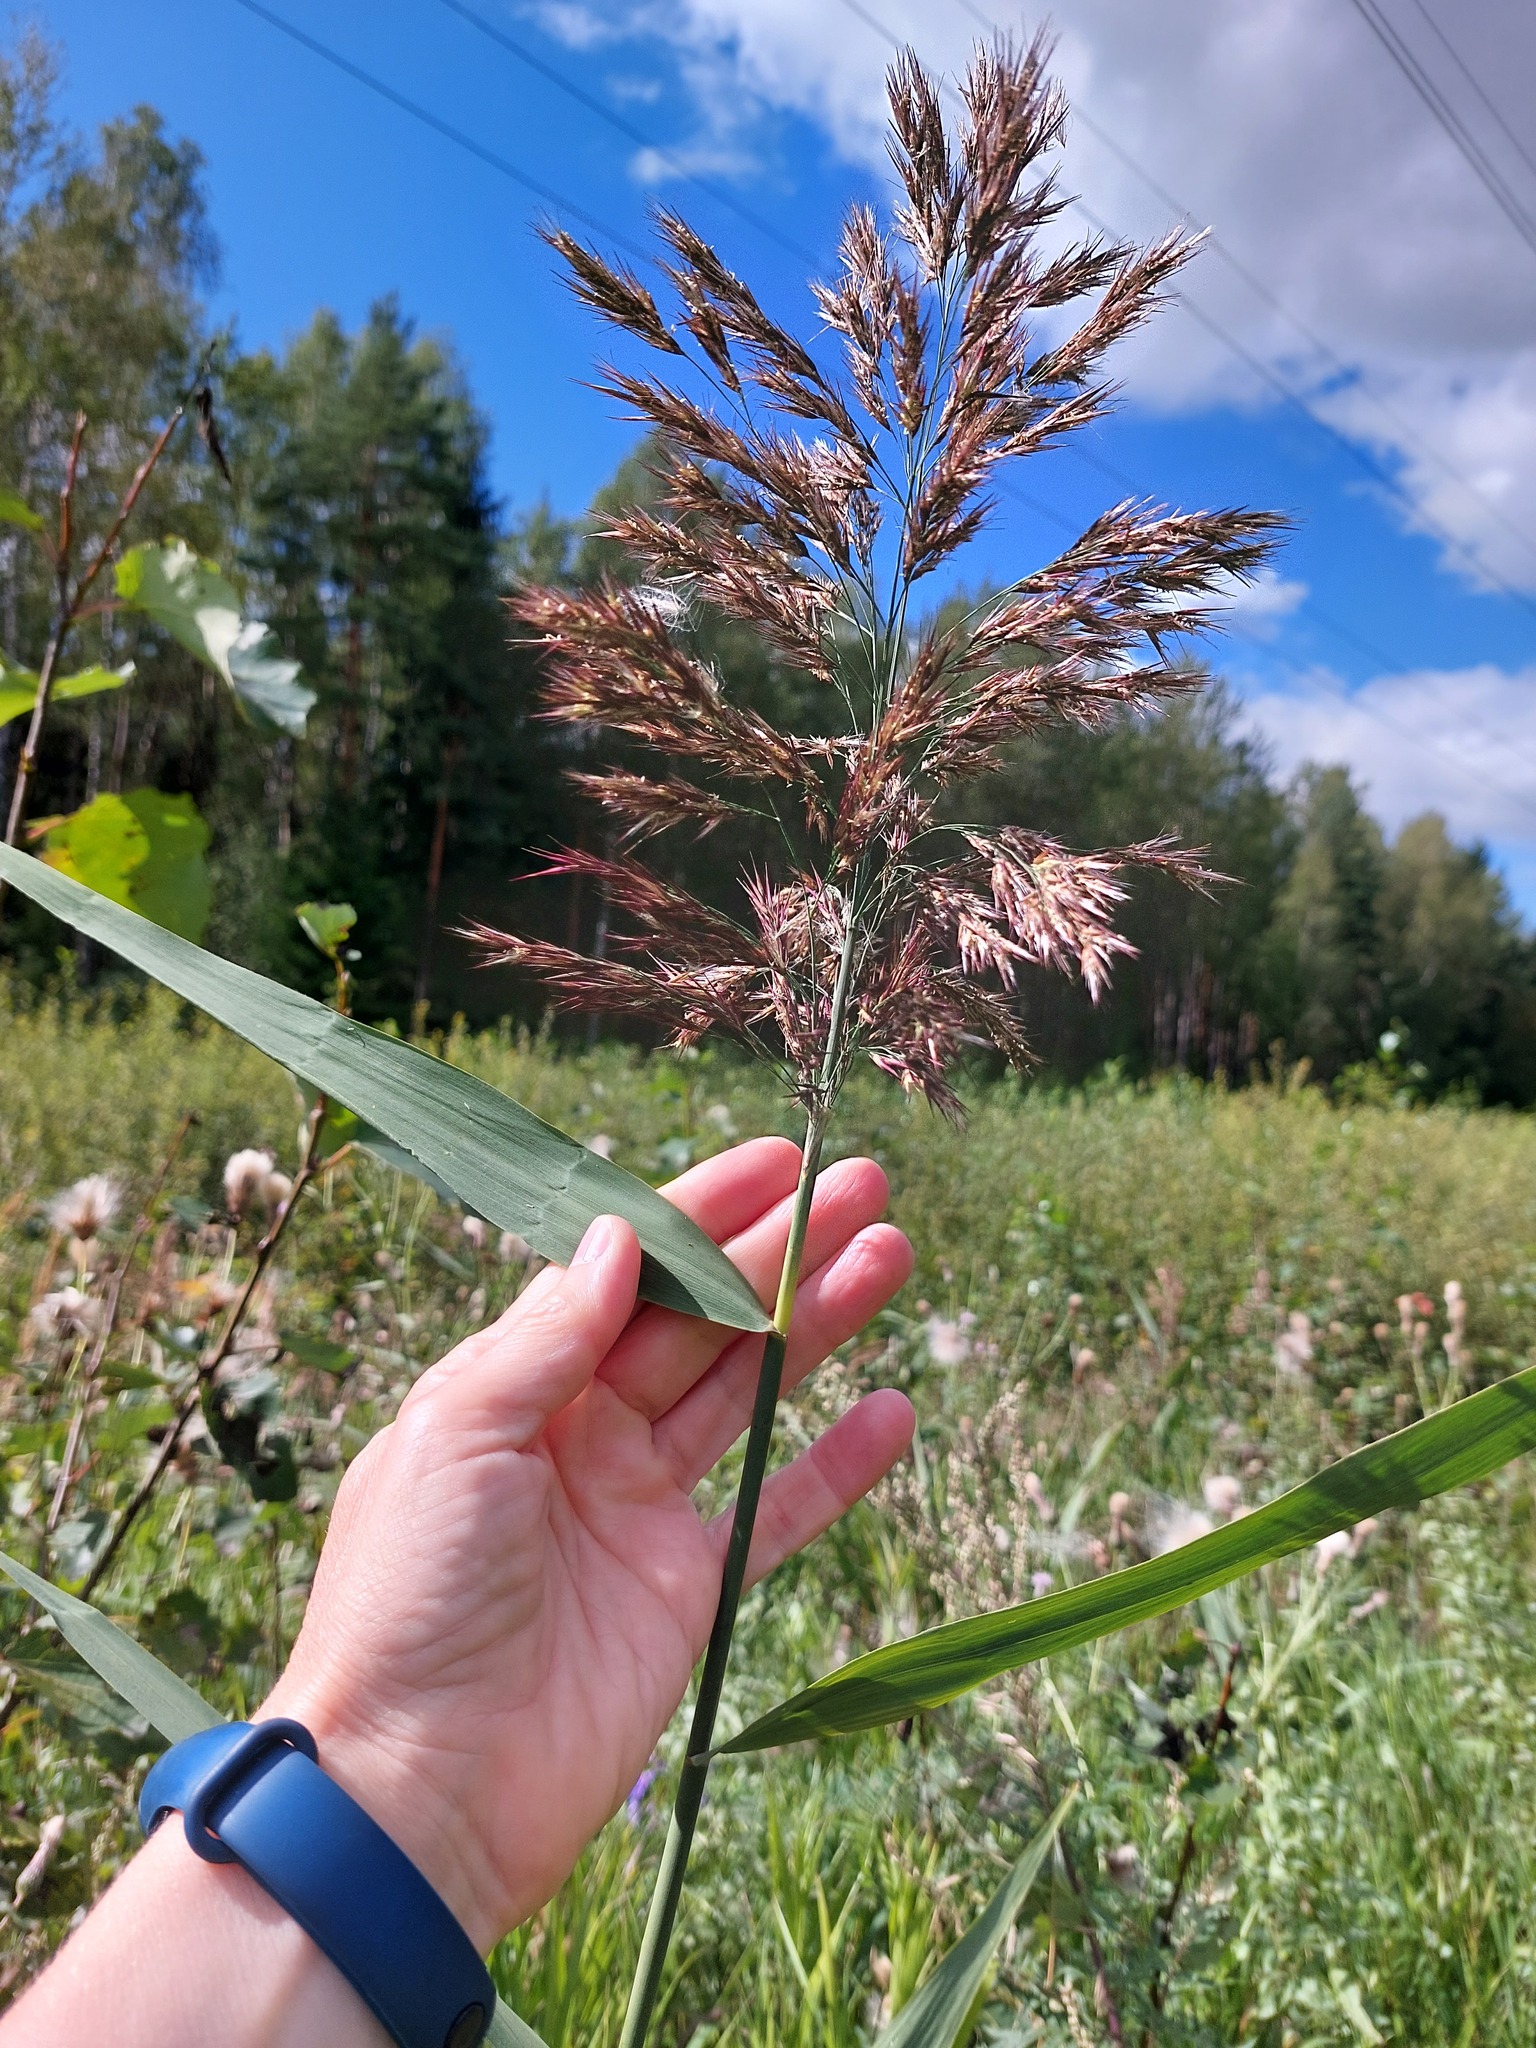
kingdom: Plantae
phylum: Tracheophyta
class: Liliopsida
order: Poales
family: Poaceae
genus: Phragmites
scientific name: Phragmites australis
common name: Common reed
